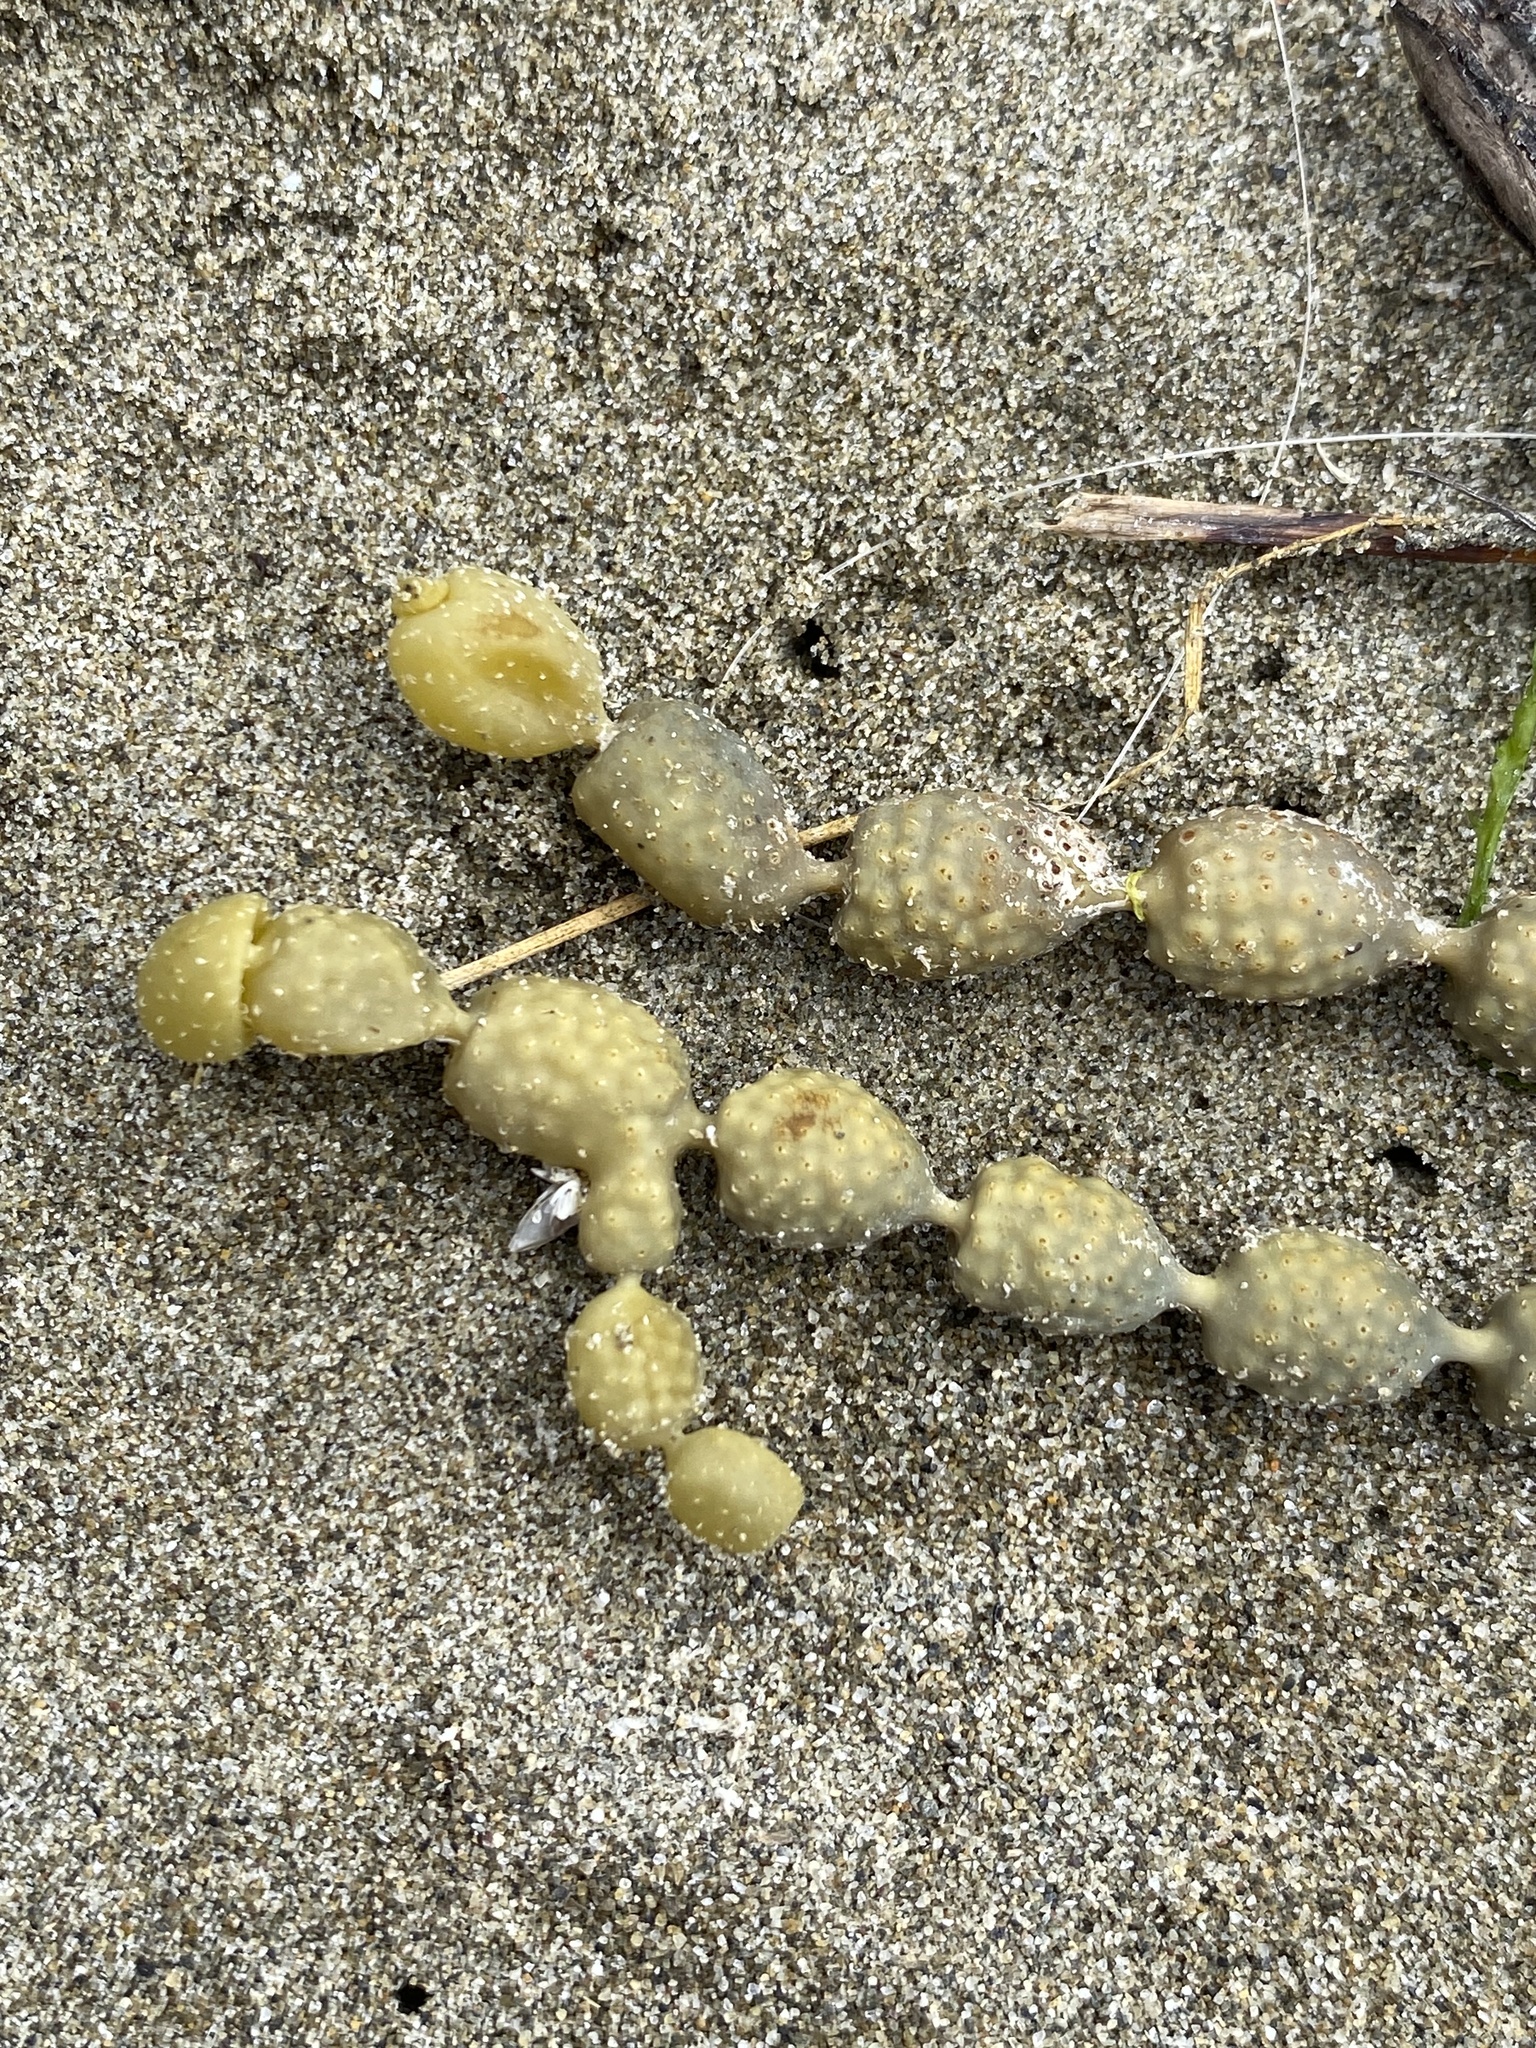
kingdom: Chromista
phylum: Ochrophyta
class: Phaeophyceae
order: Fucales
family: Hormosiraceae
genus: Hormosira
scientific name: Hormosira banksii
